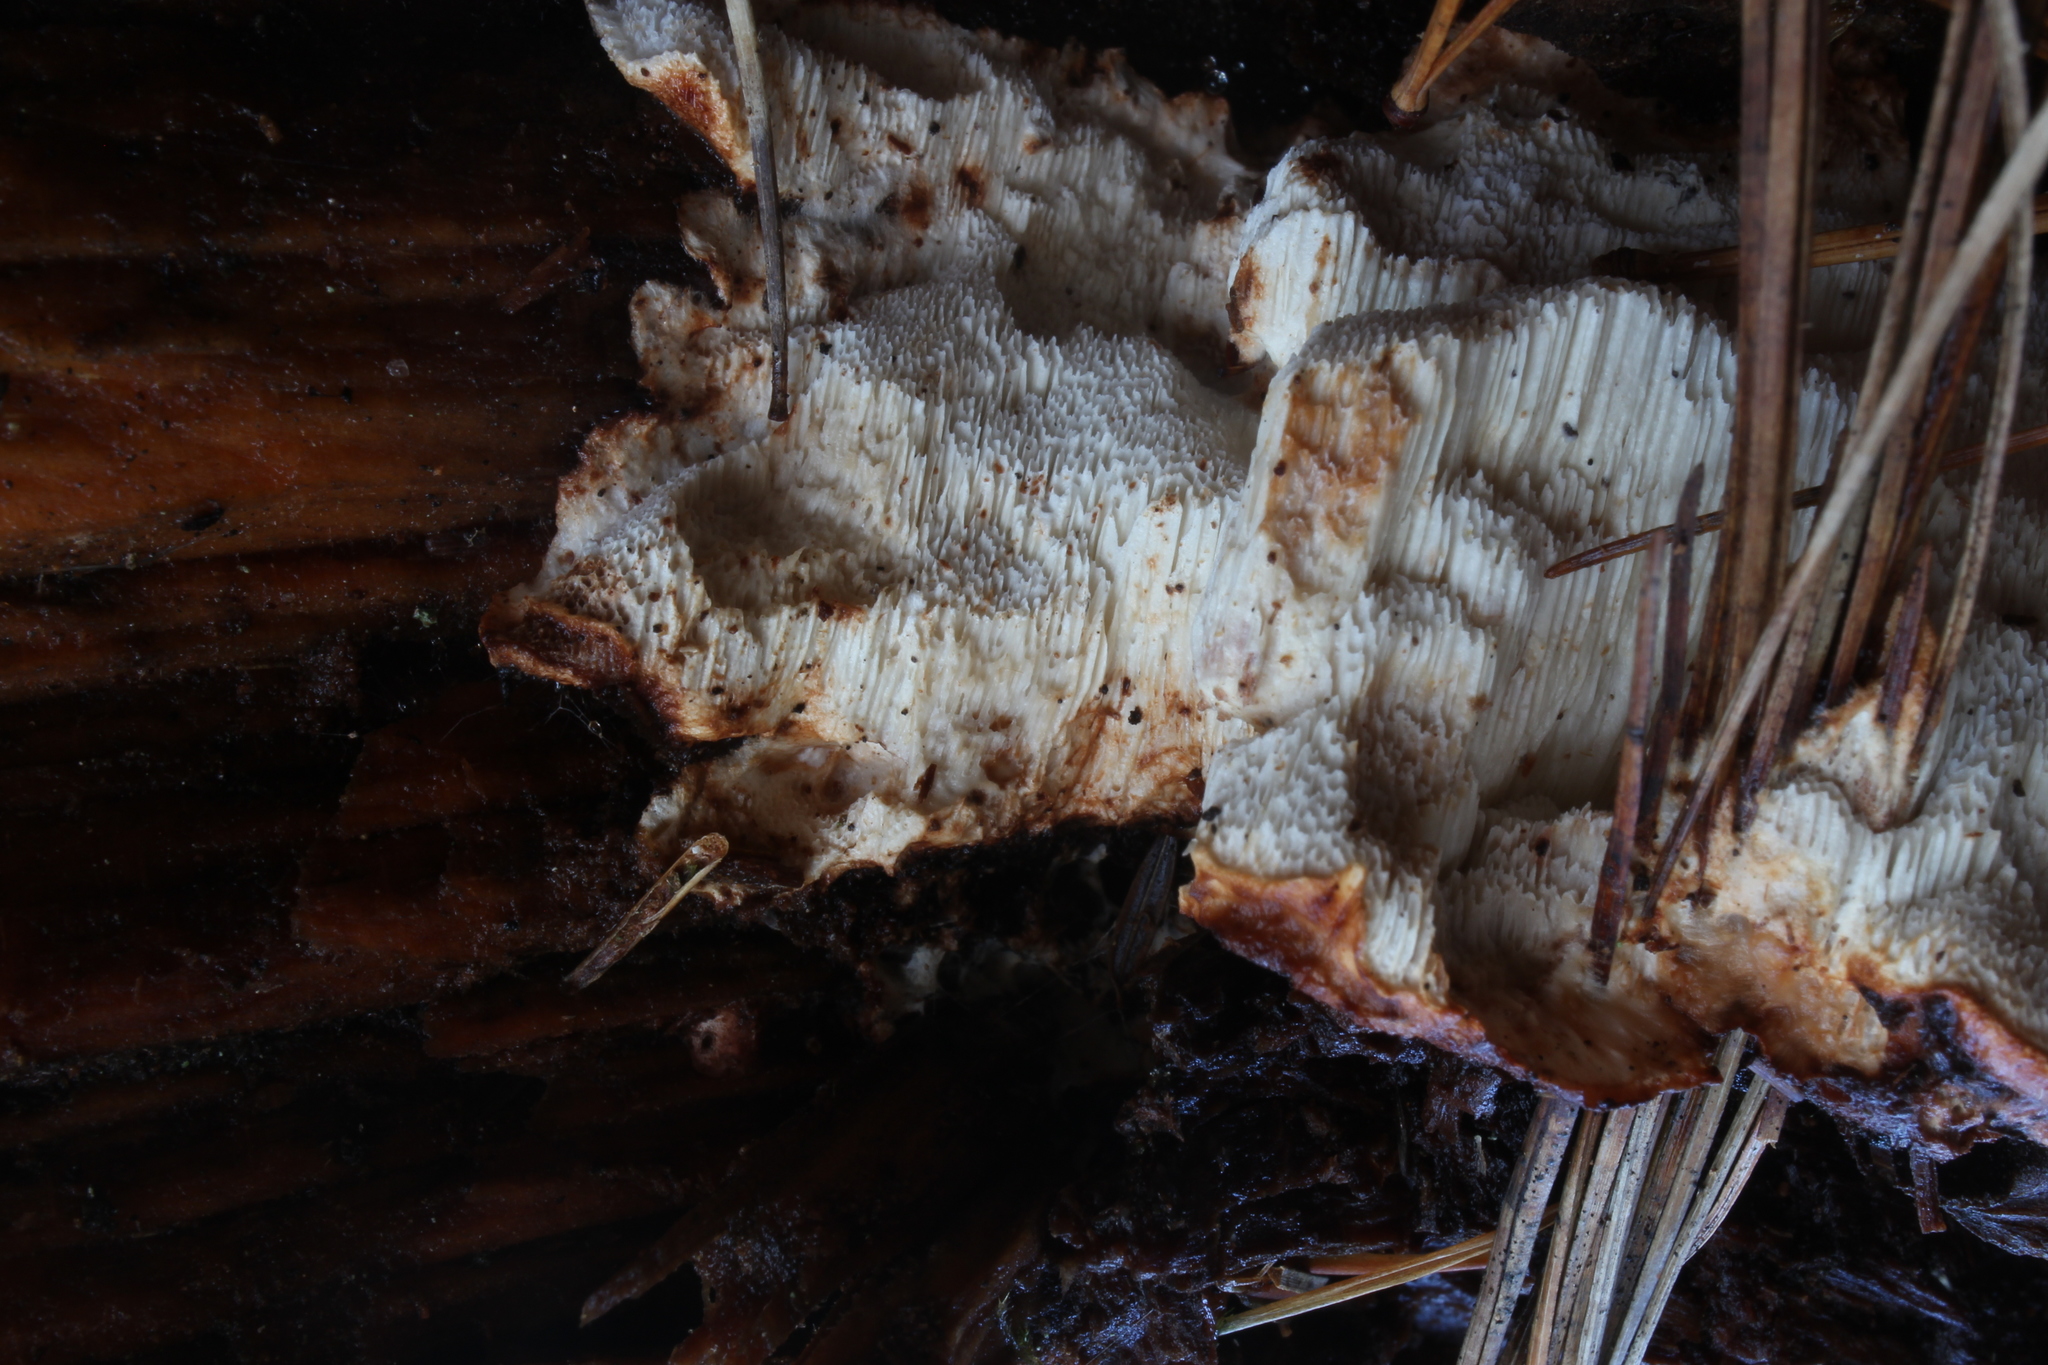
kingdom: Fungi
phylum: Basidiomycota
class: Agaricomycetes
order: Polyporales
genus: Fuscopostia
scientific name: Fuscopostia lateritia
